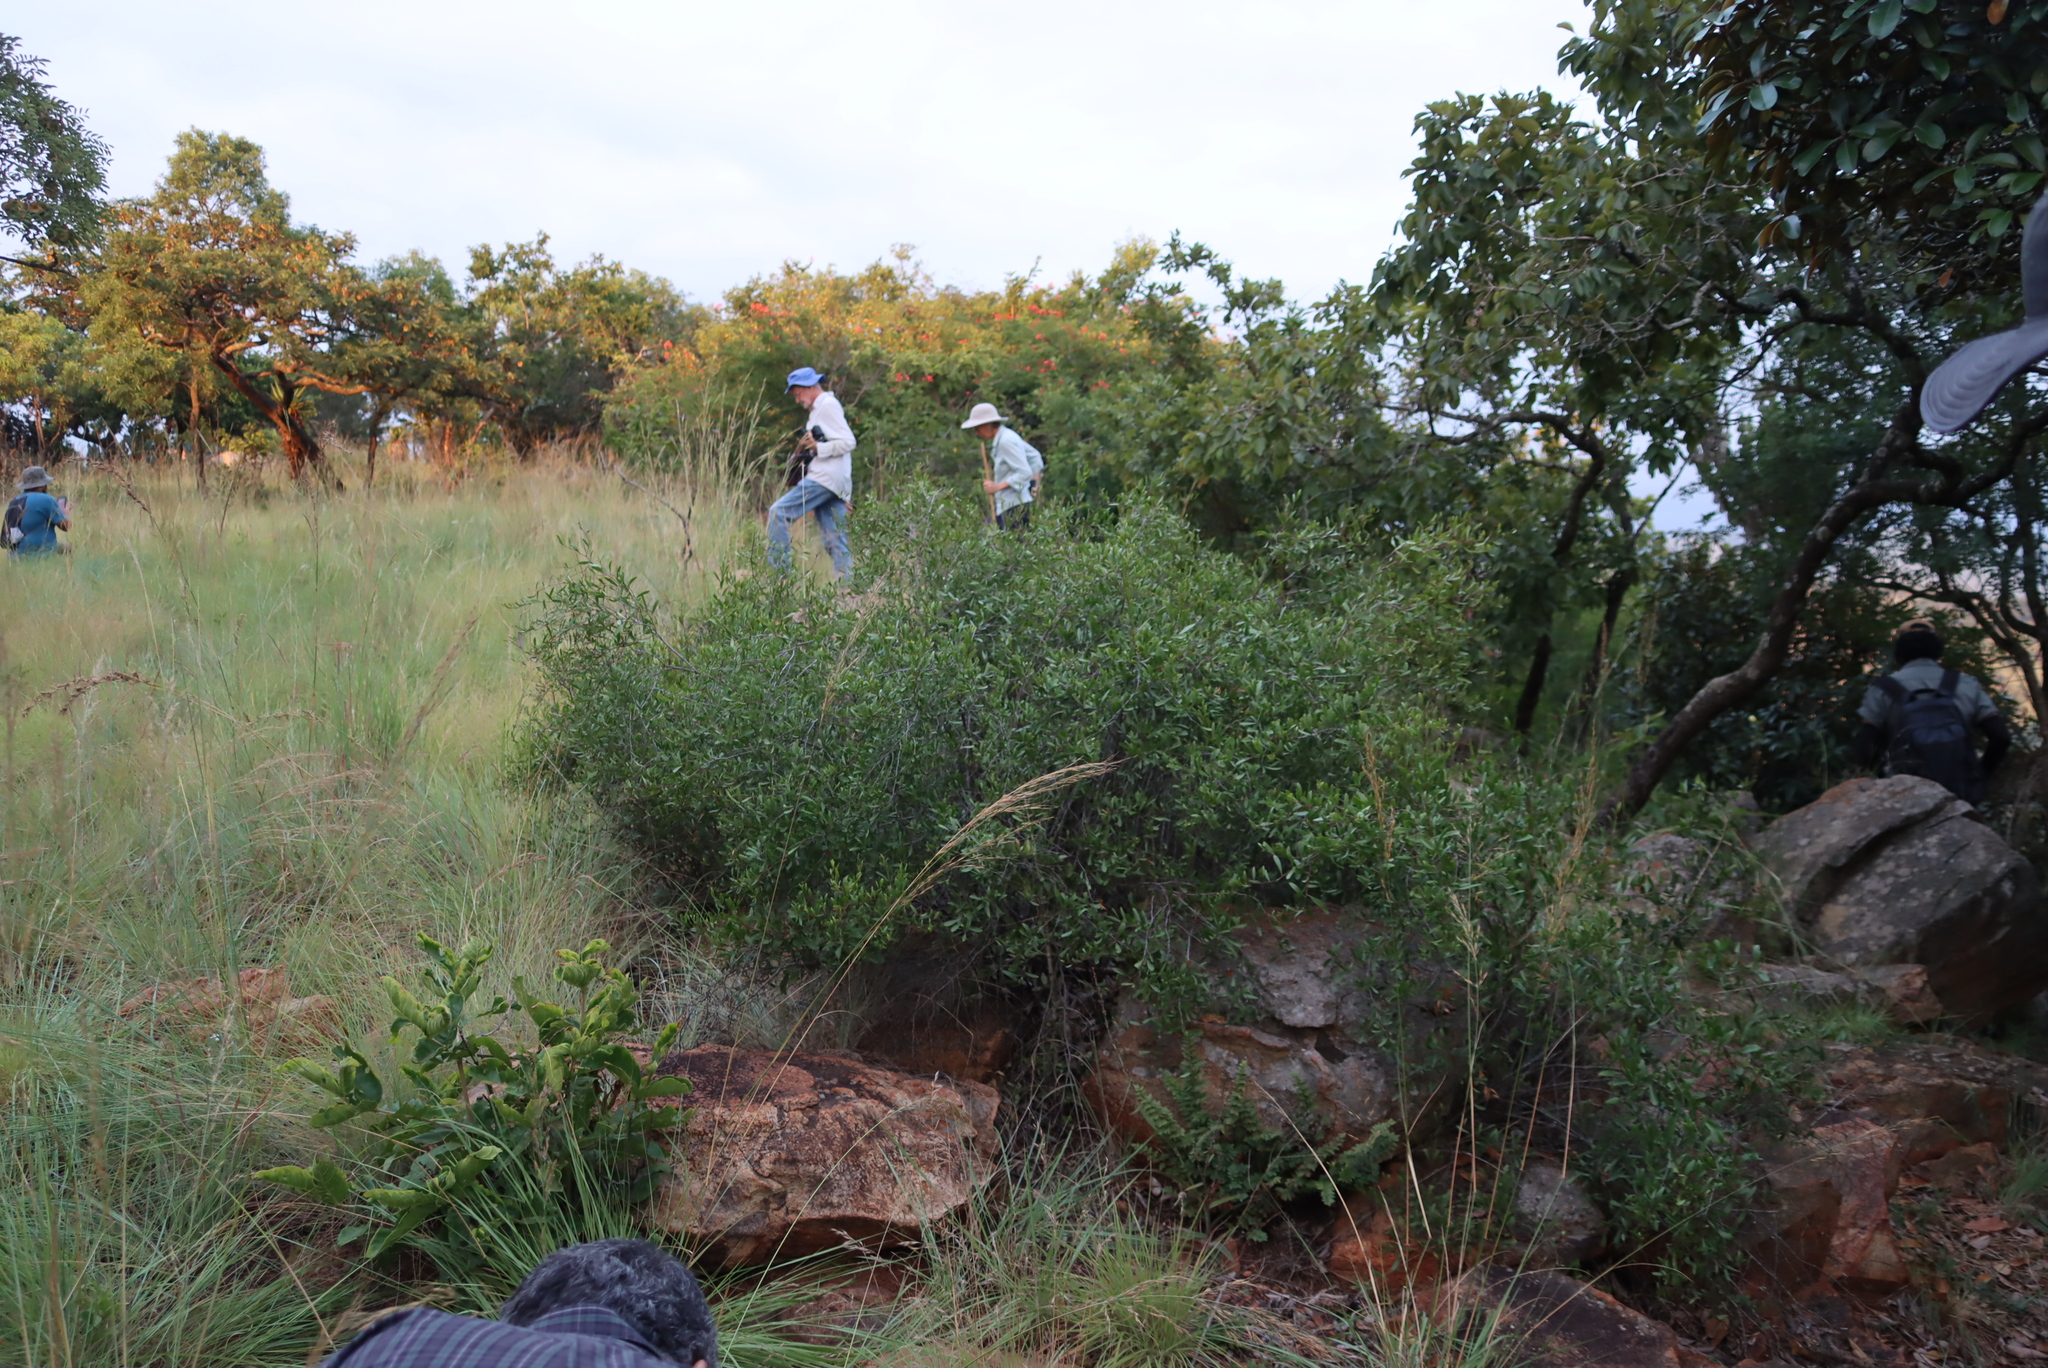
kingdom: Plantae
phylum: Tracheophyta
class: Magnoliopsida
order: Celastrales
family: Celastraceae
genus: Gymnosporia
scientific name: Gymnosporia tenuispina
